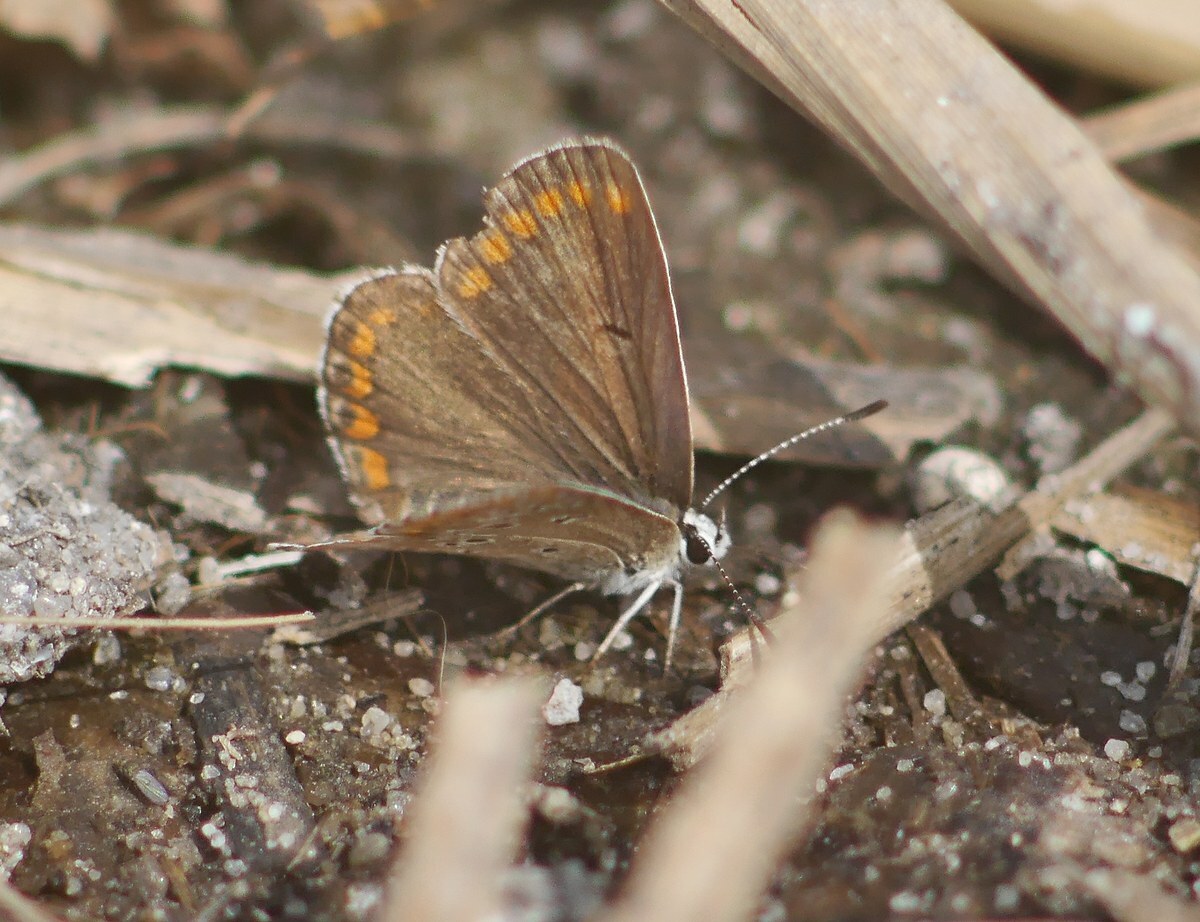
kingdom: Animalia
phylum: Arthropoda
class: Insecta
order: Lepidoptera
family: Lycaenidae
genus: Aricia
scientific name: Aricia agestis
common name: Brown argus
